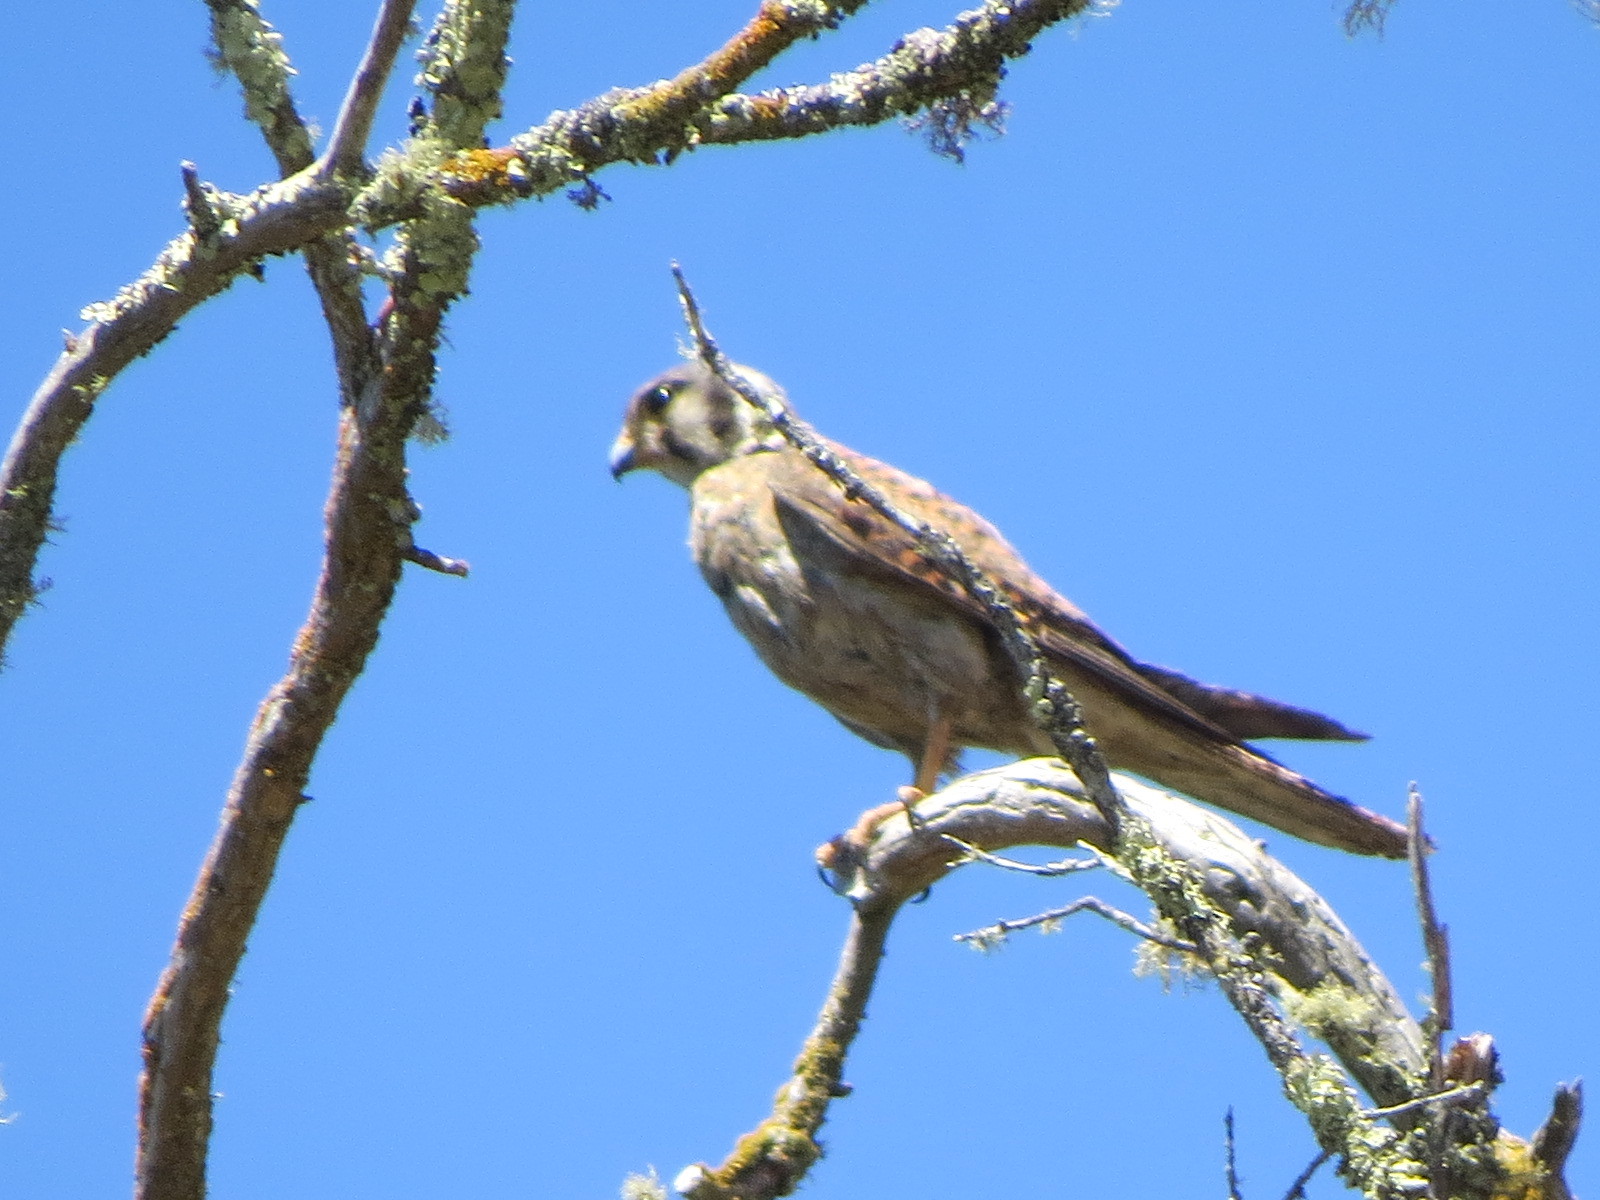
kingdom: Animalia
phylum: Chordata
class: Aves
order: Falconiformes
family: Falconidae
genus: Falco
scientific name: Falco sparverius
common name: American kestrel
